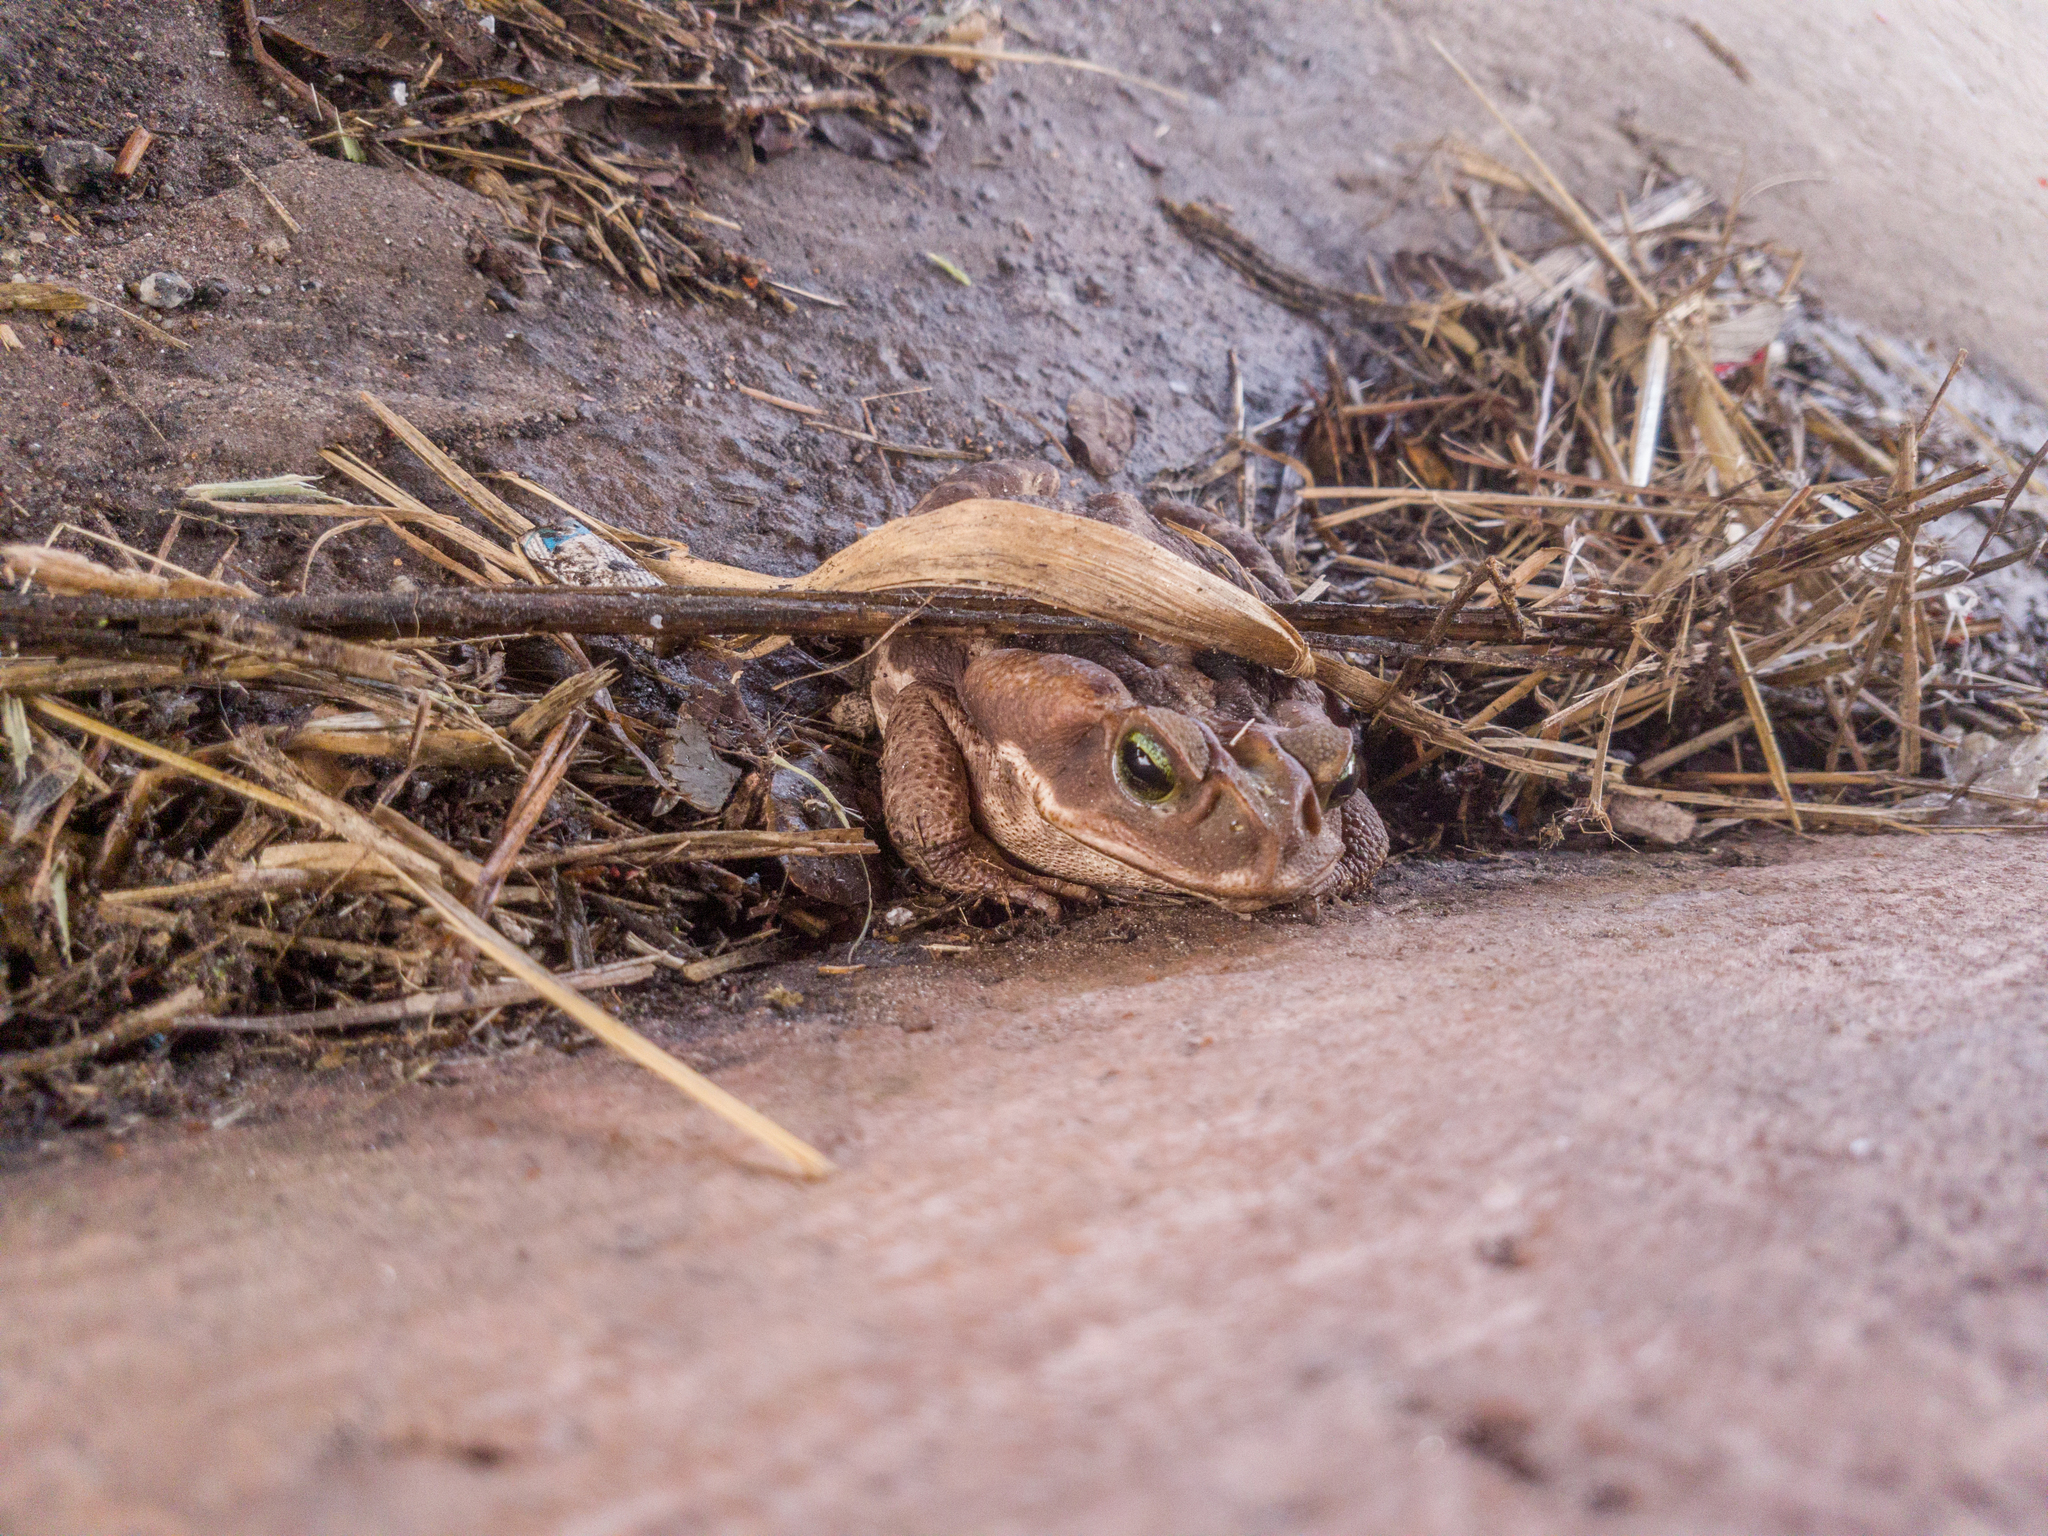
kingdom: Animalia
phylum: Chordata
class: Amphibia
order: Anura
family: Bufonidae
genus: Rhinella
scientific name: Rhinella icterica
